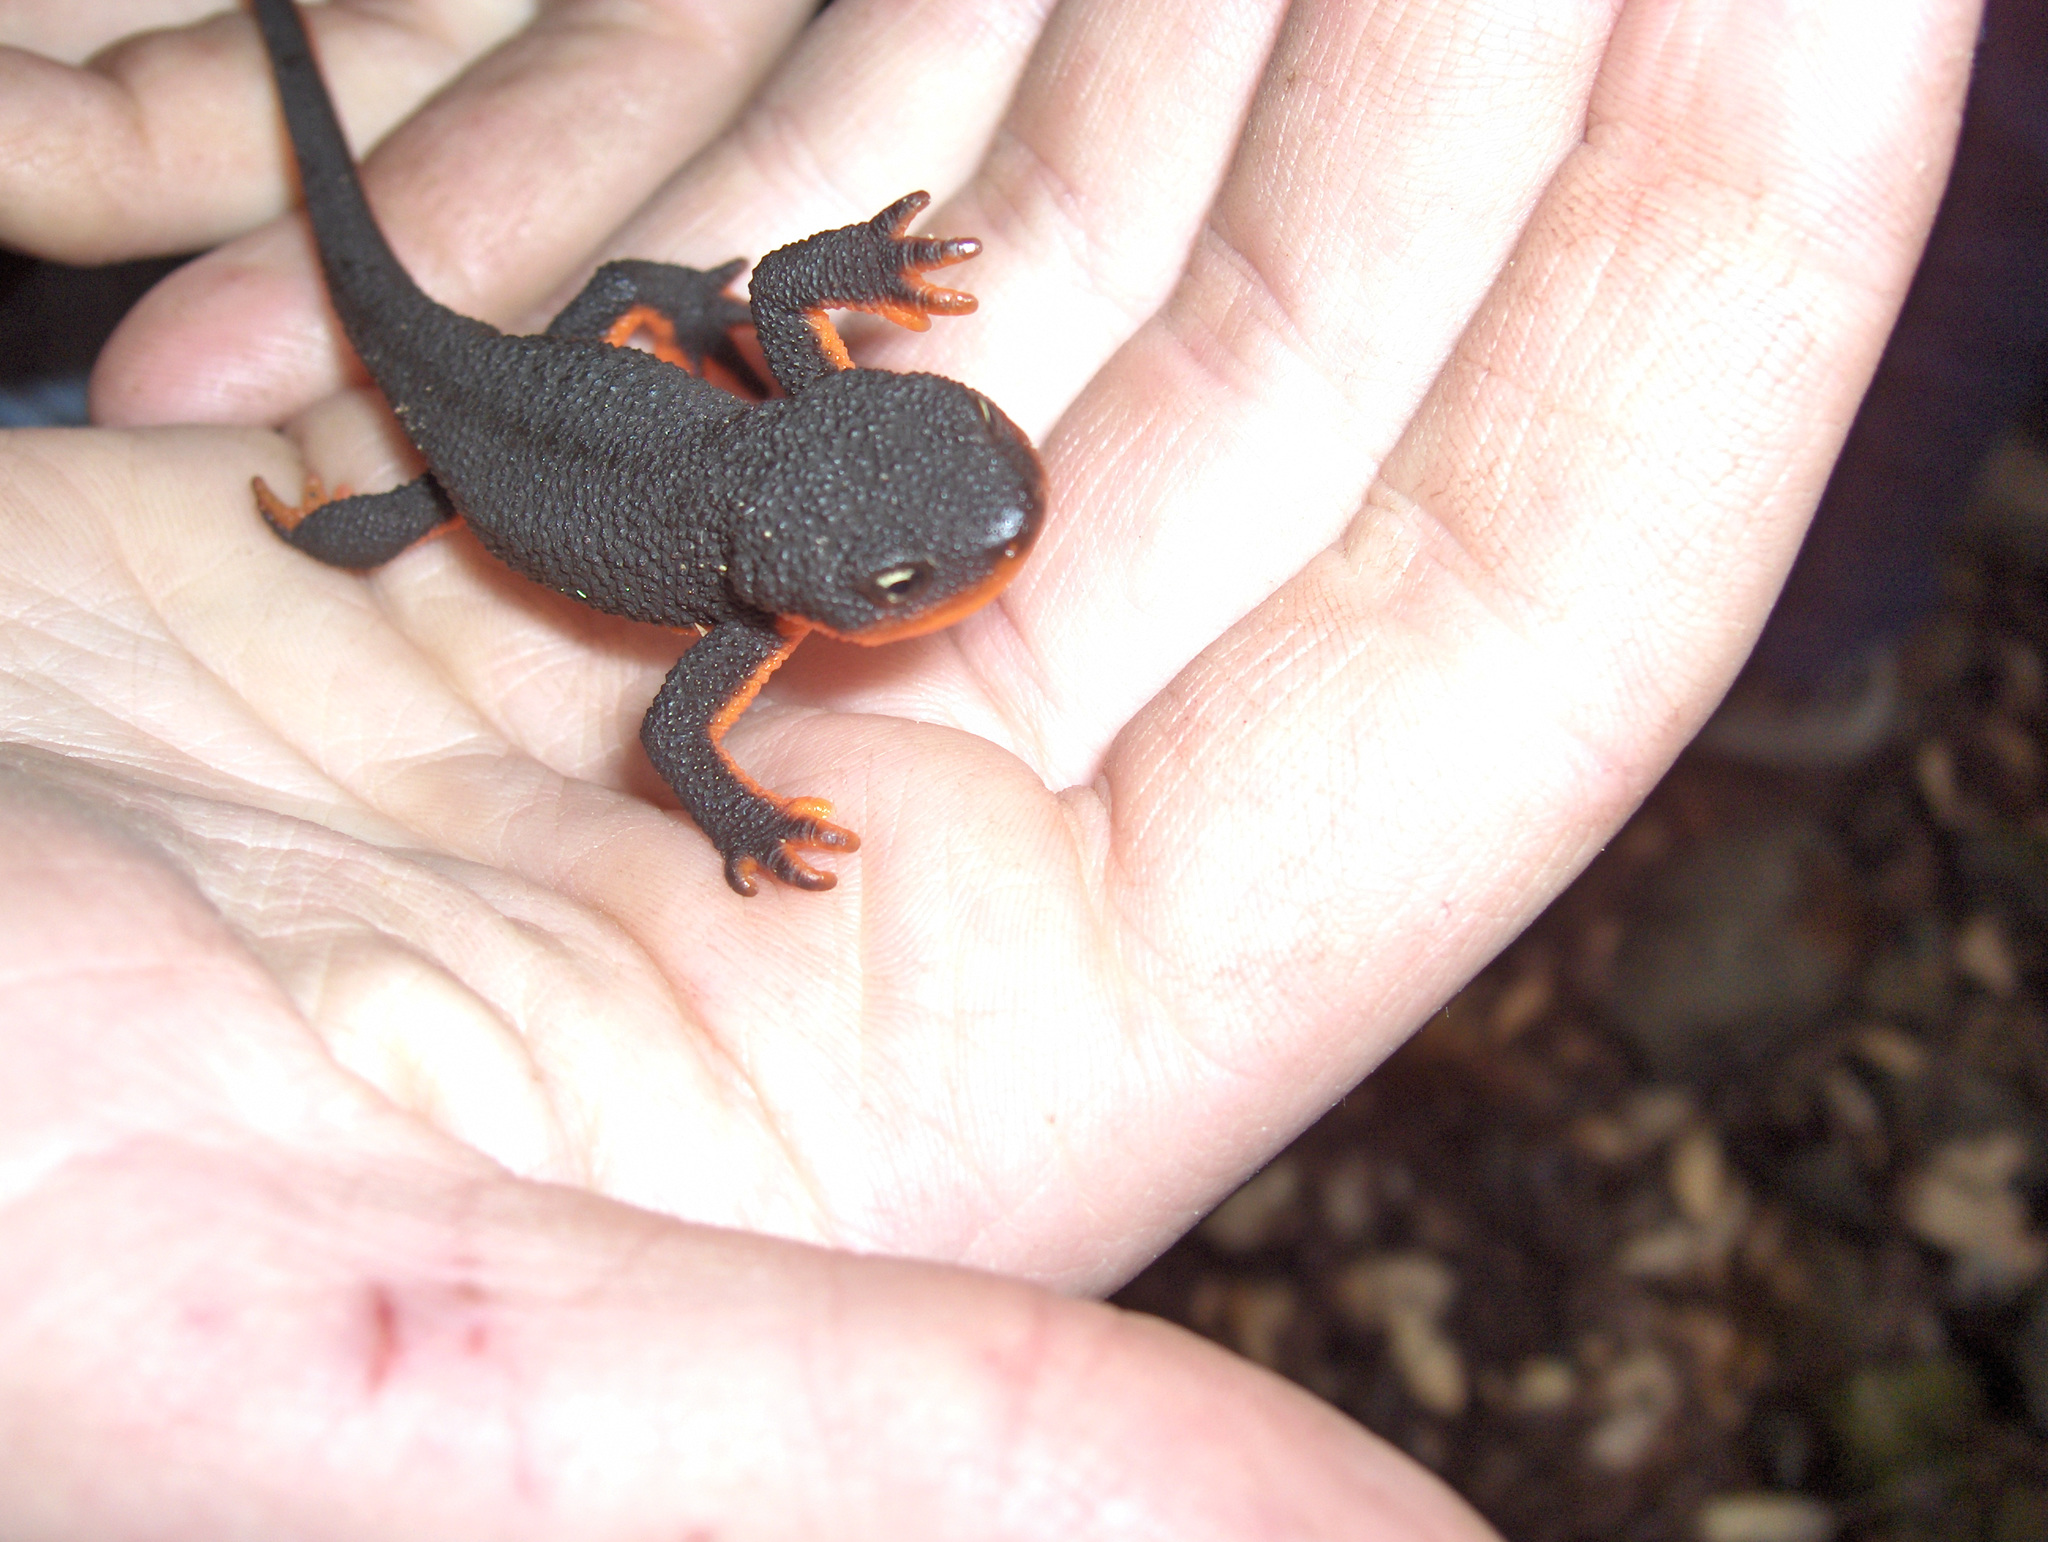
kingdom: Animalia
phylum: Chordata
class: Amphibia
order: Caudata
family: Salamandridae
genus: Taricha
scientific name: Taricha granulosa
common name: Roughskin newt
